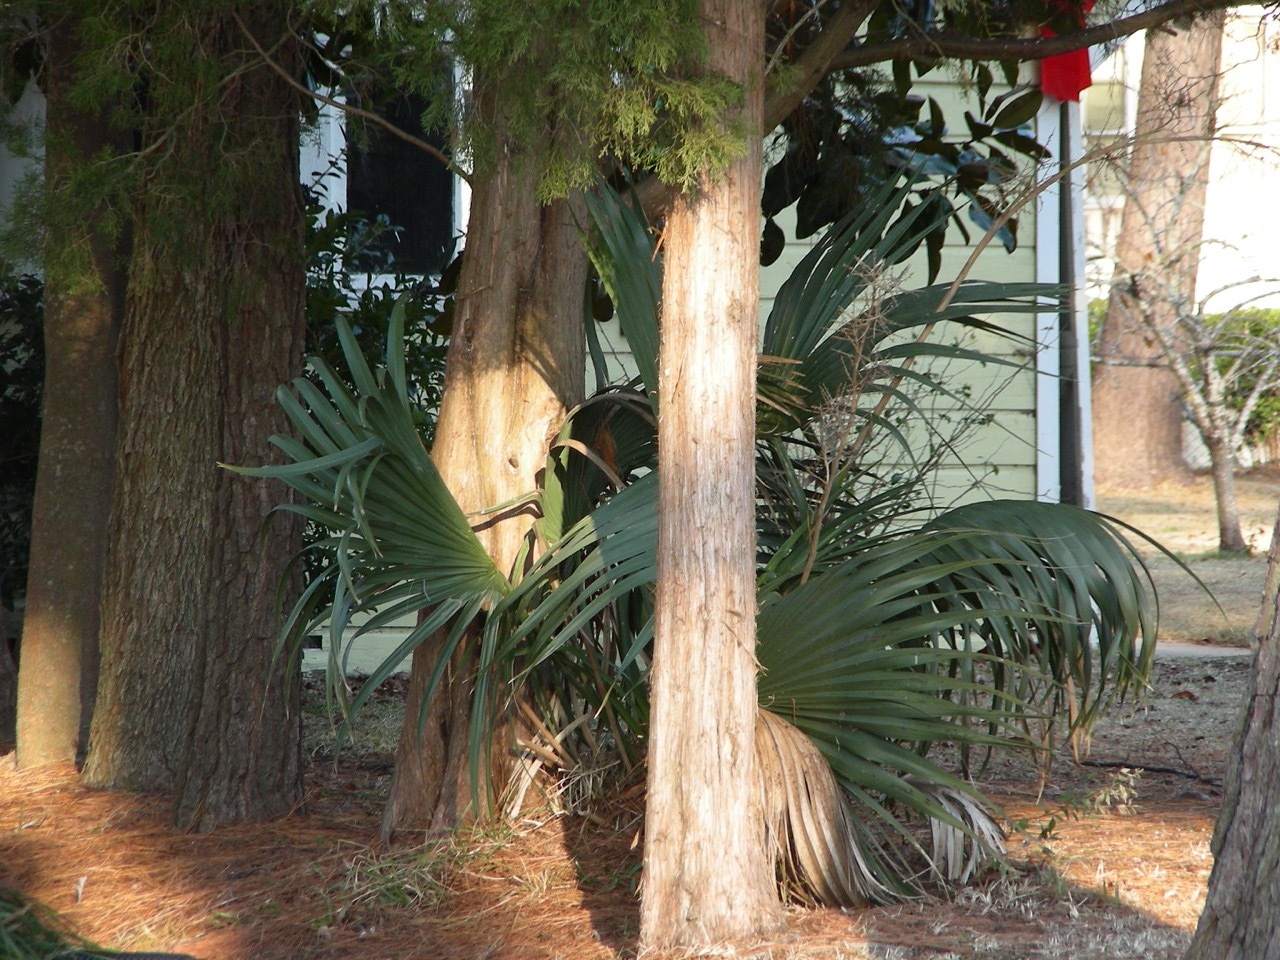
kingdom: Plantae
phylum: Tracheophyta
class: Liliopsida
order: Arecales
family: Arecaceae
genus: Sabal
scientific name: Sabal minor
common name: Dwarf palmetto
